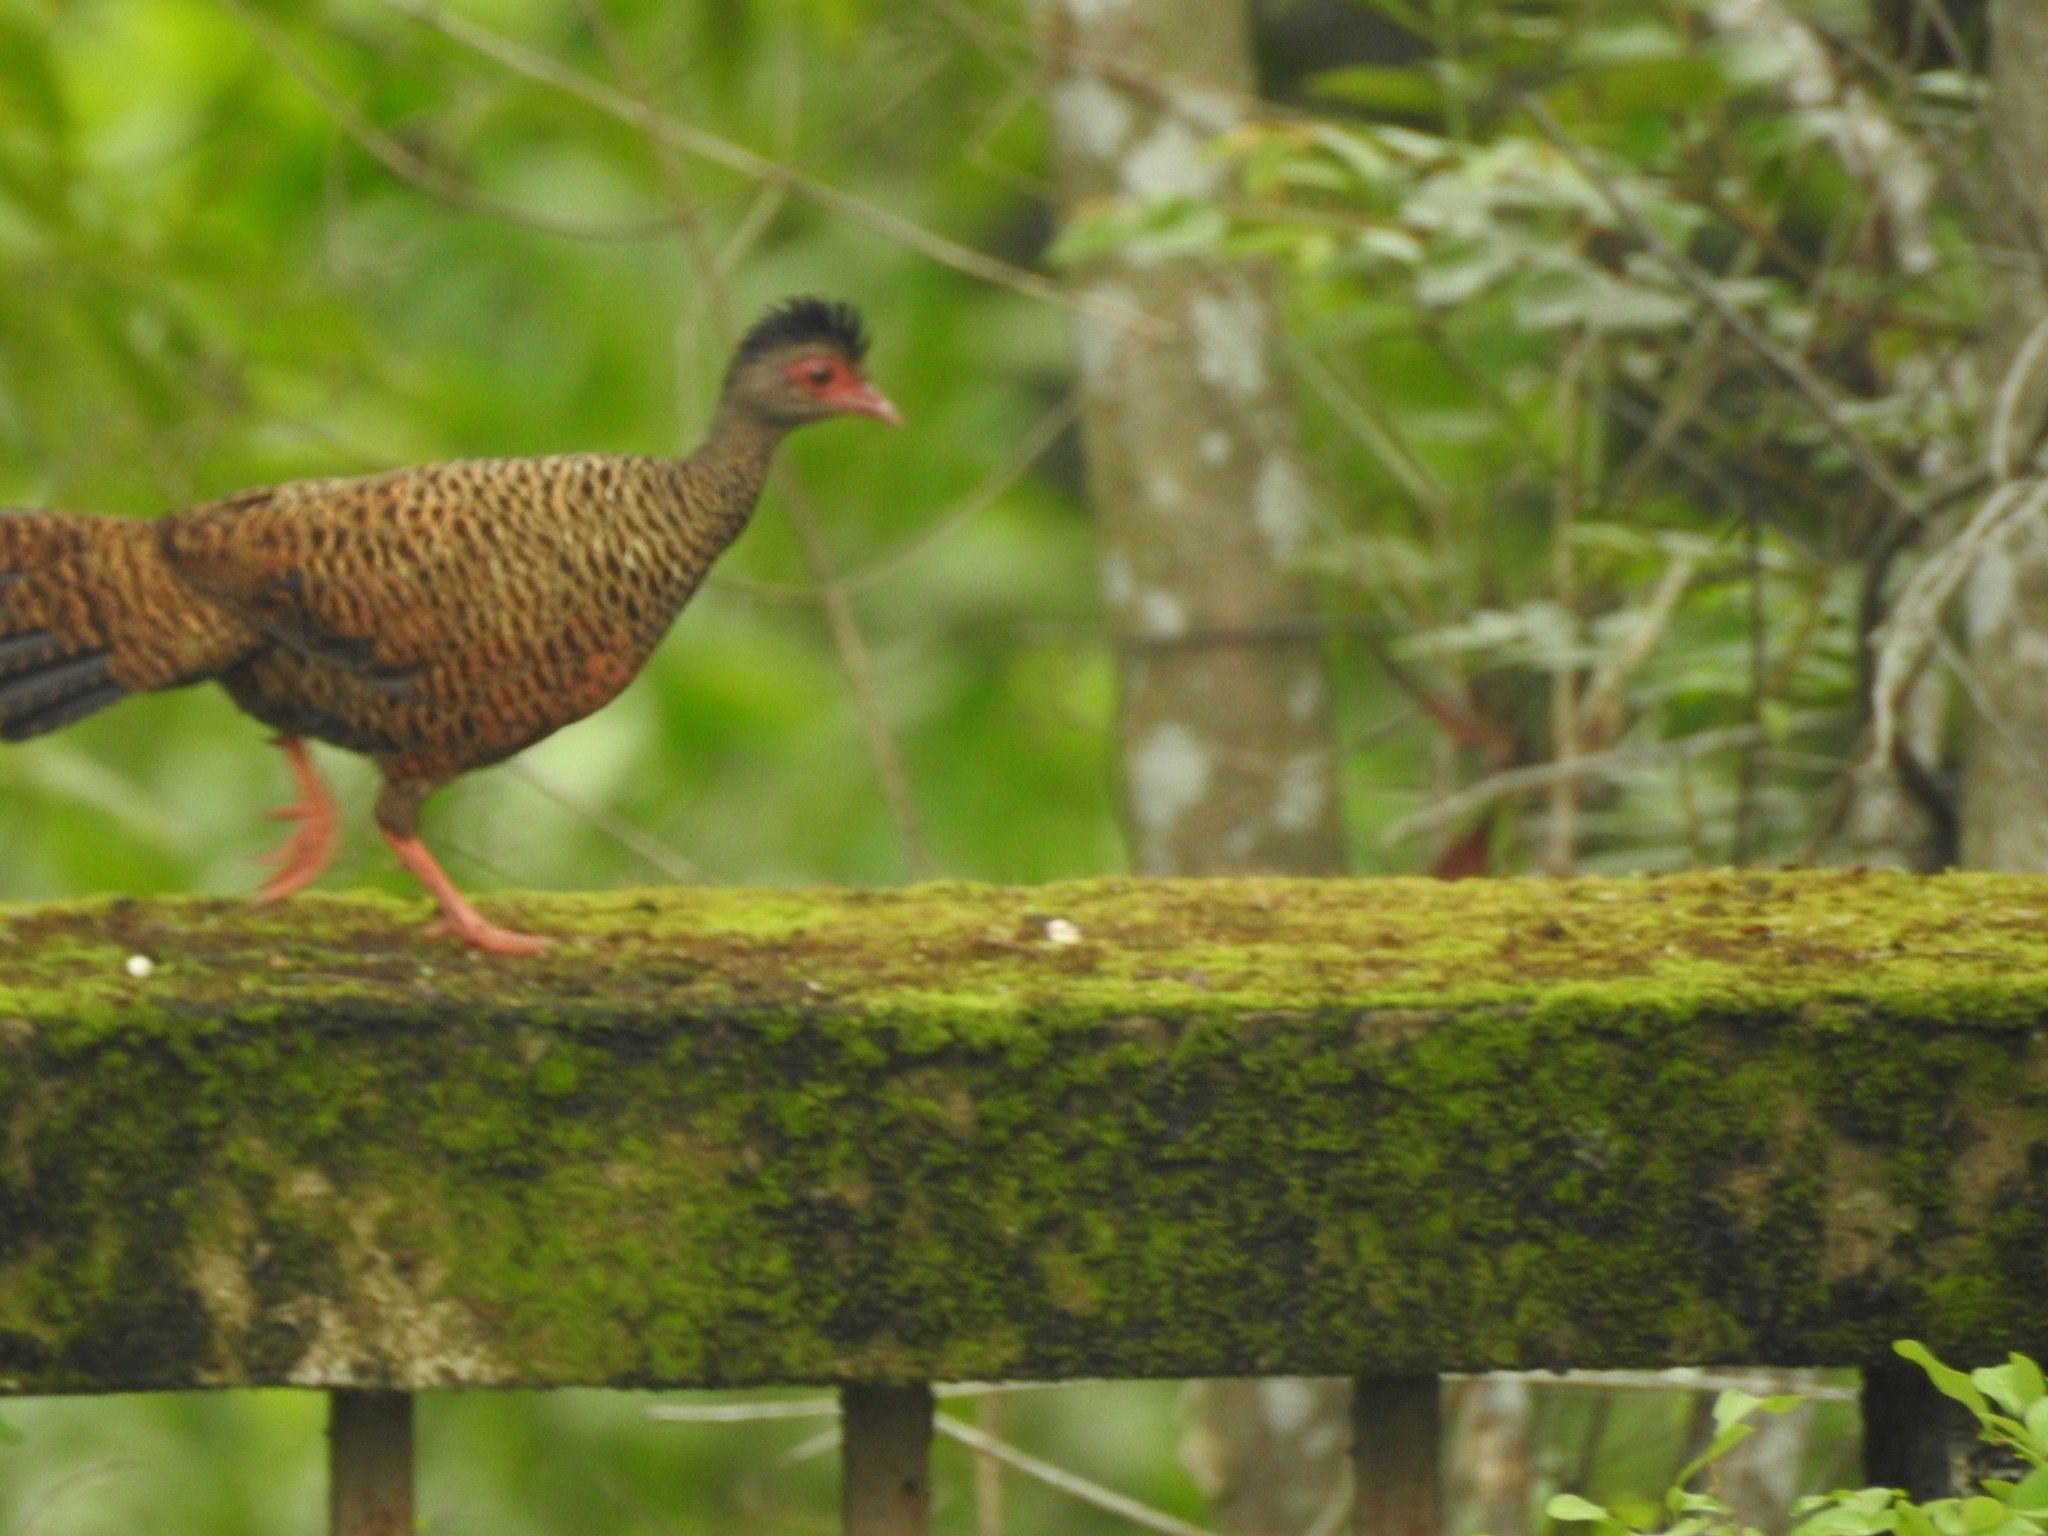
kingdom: Animalia
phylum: Chordata
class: Aves
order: Galliformes
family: Phasianidae
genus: Galloperdix
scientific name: Galloperdix spadicea
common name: Red spurfowl
